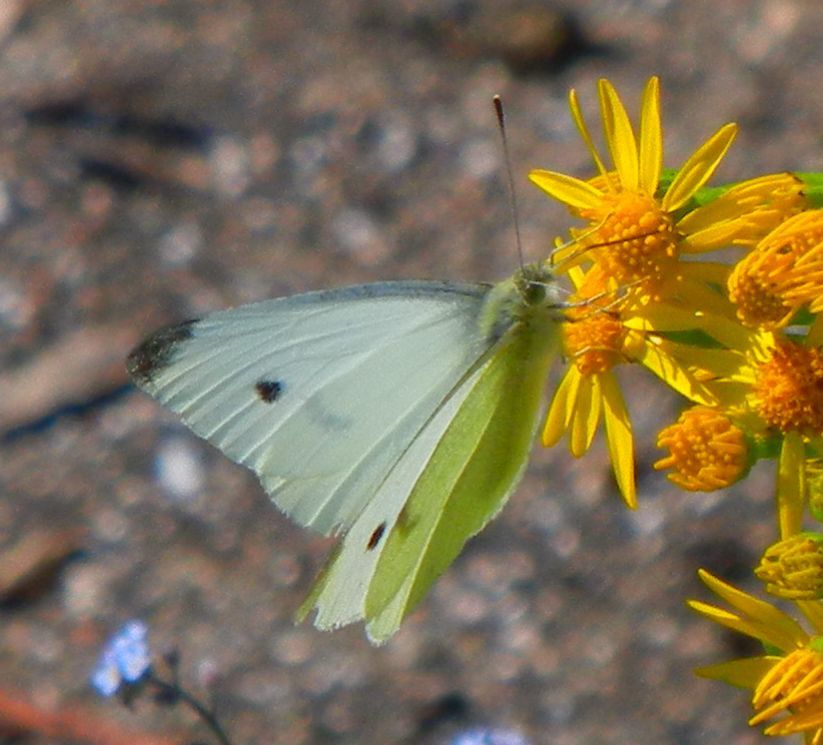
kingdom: Animalia
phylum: Arthropoda
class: Insecta
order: Lepidoptera
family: Pieridae
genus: Pieris
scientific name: Pieris rapae
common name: Small white
